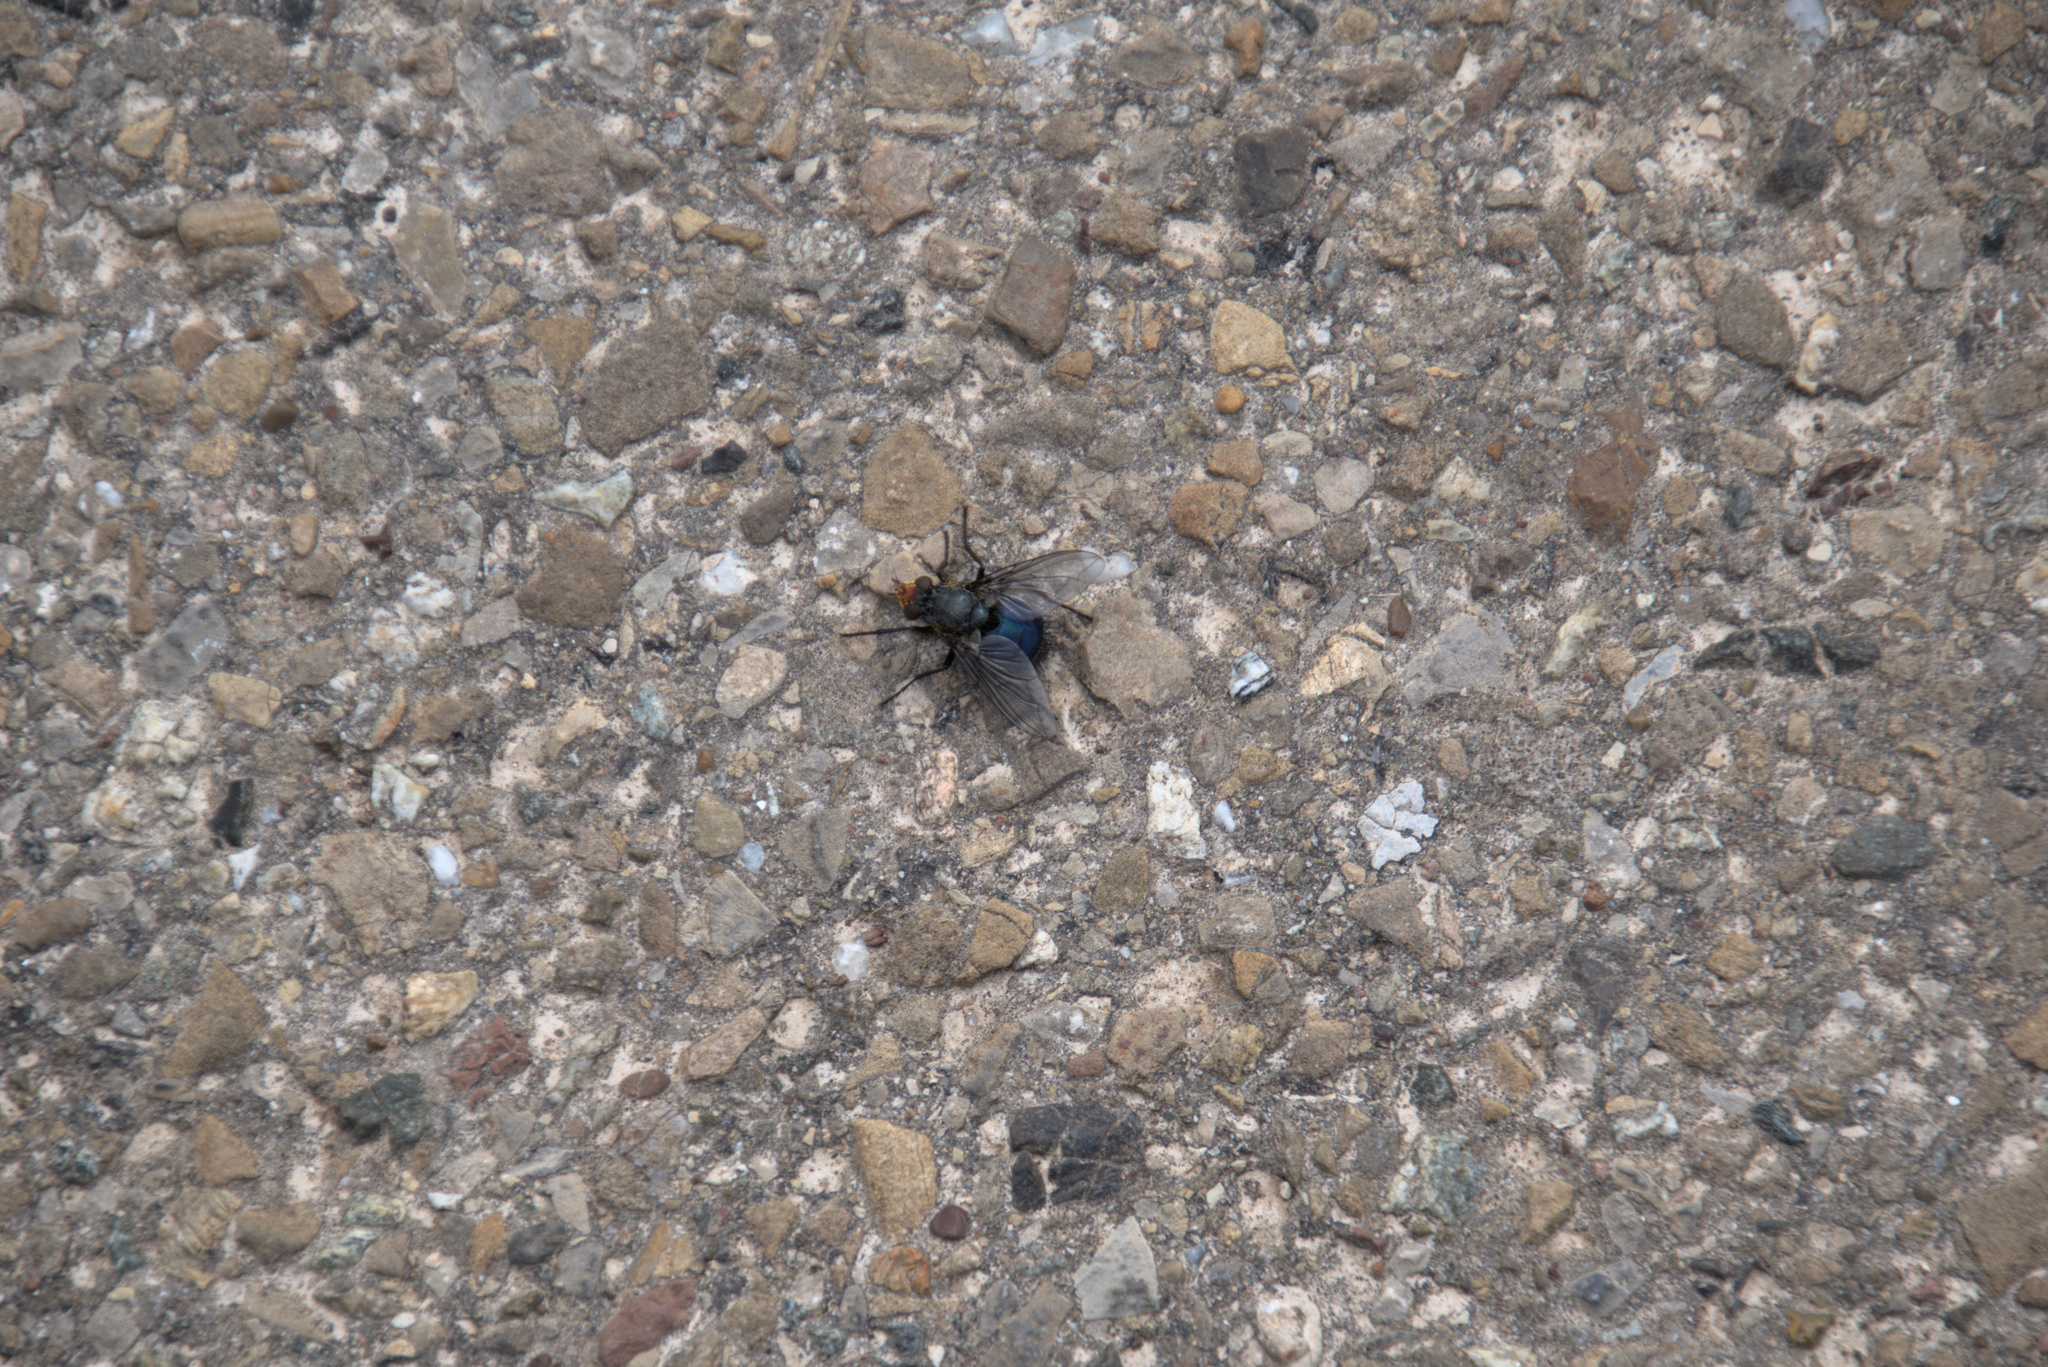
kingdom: Animalia
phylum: Arthropoda
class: Insecta
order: Diptera
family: Calliphoridae
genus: Cynomya
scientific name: Cynomya mortuorum
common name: Bluebottle blow fly
